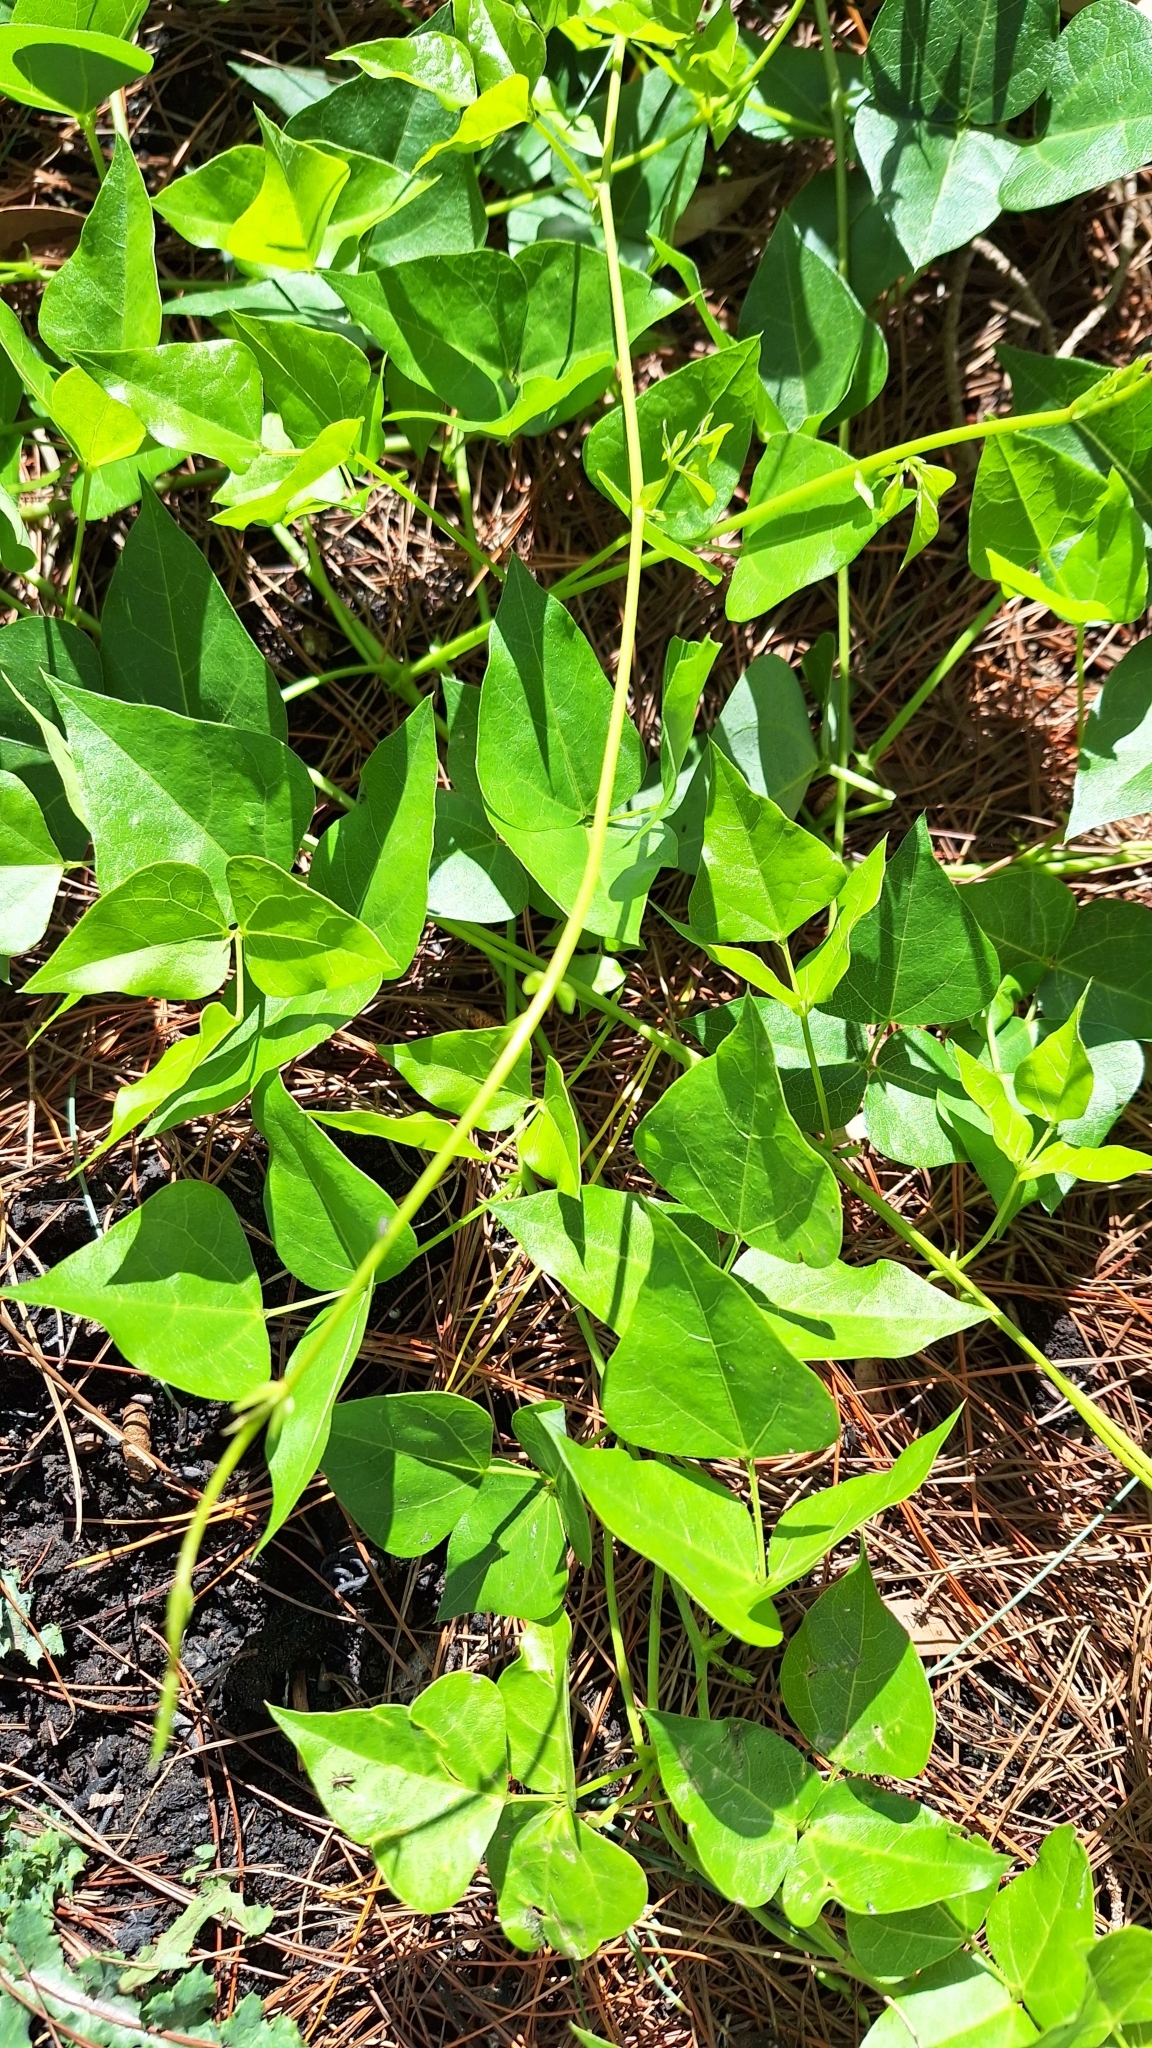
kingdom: Plantae
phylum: Tracheophyta
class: Magnoliopsida
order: Fabales
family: Fabaceae
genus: Dipogon
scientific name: Dipogon lignosus
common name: Okie bean
